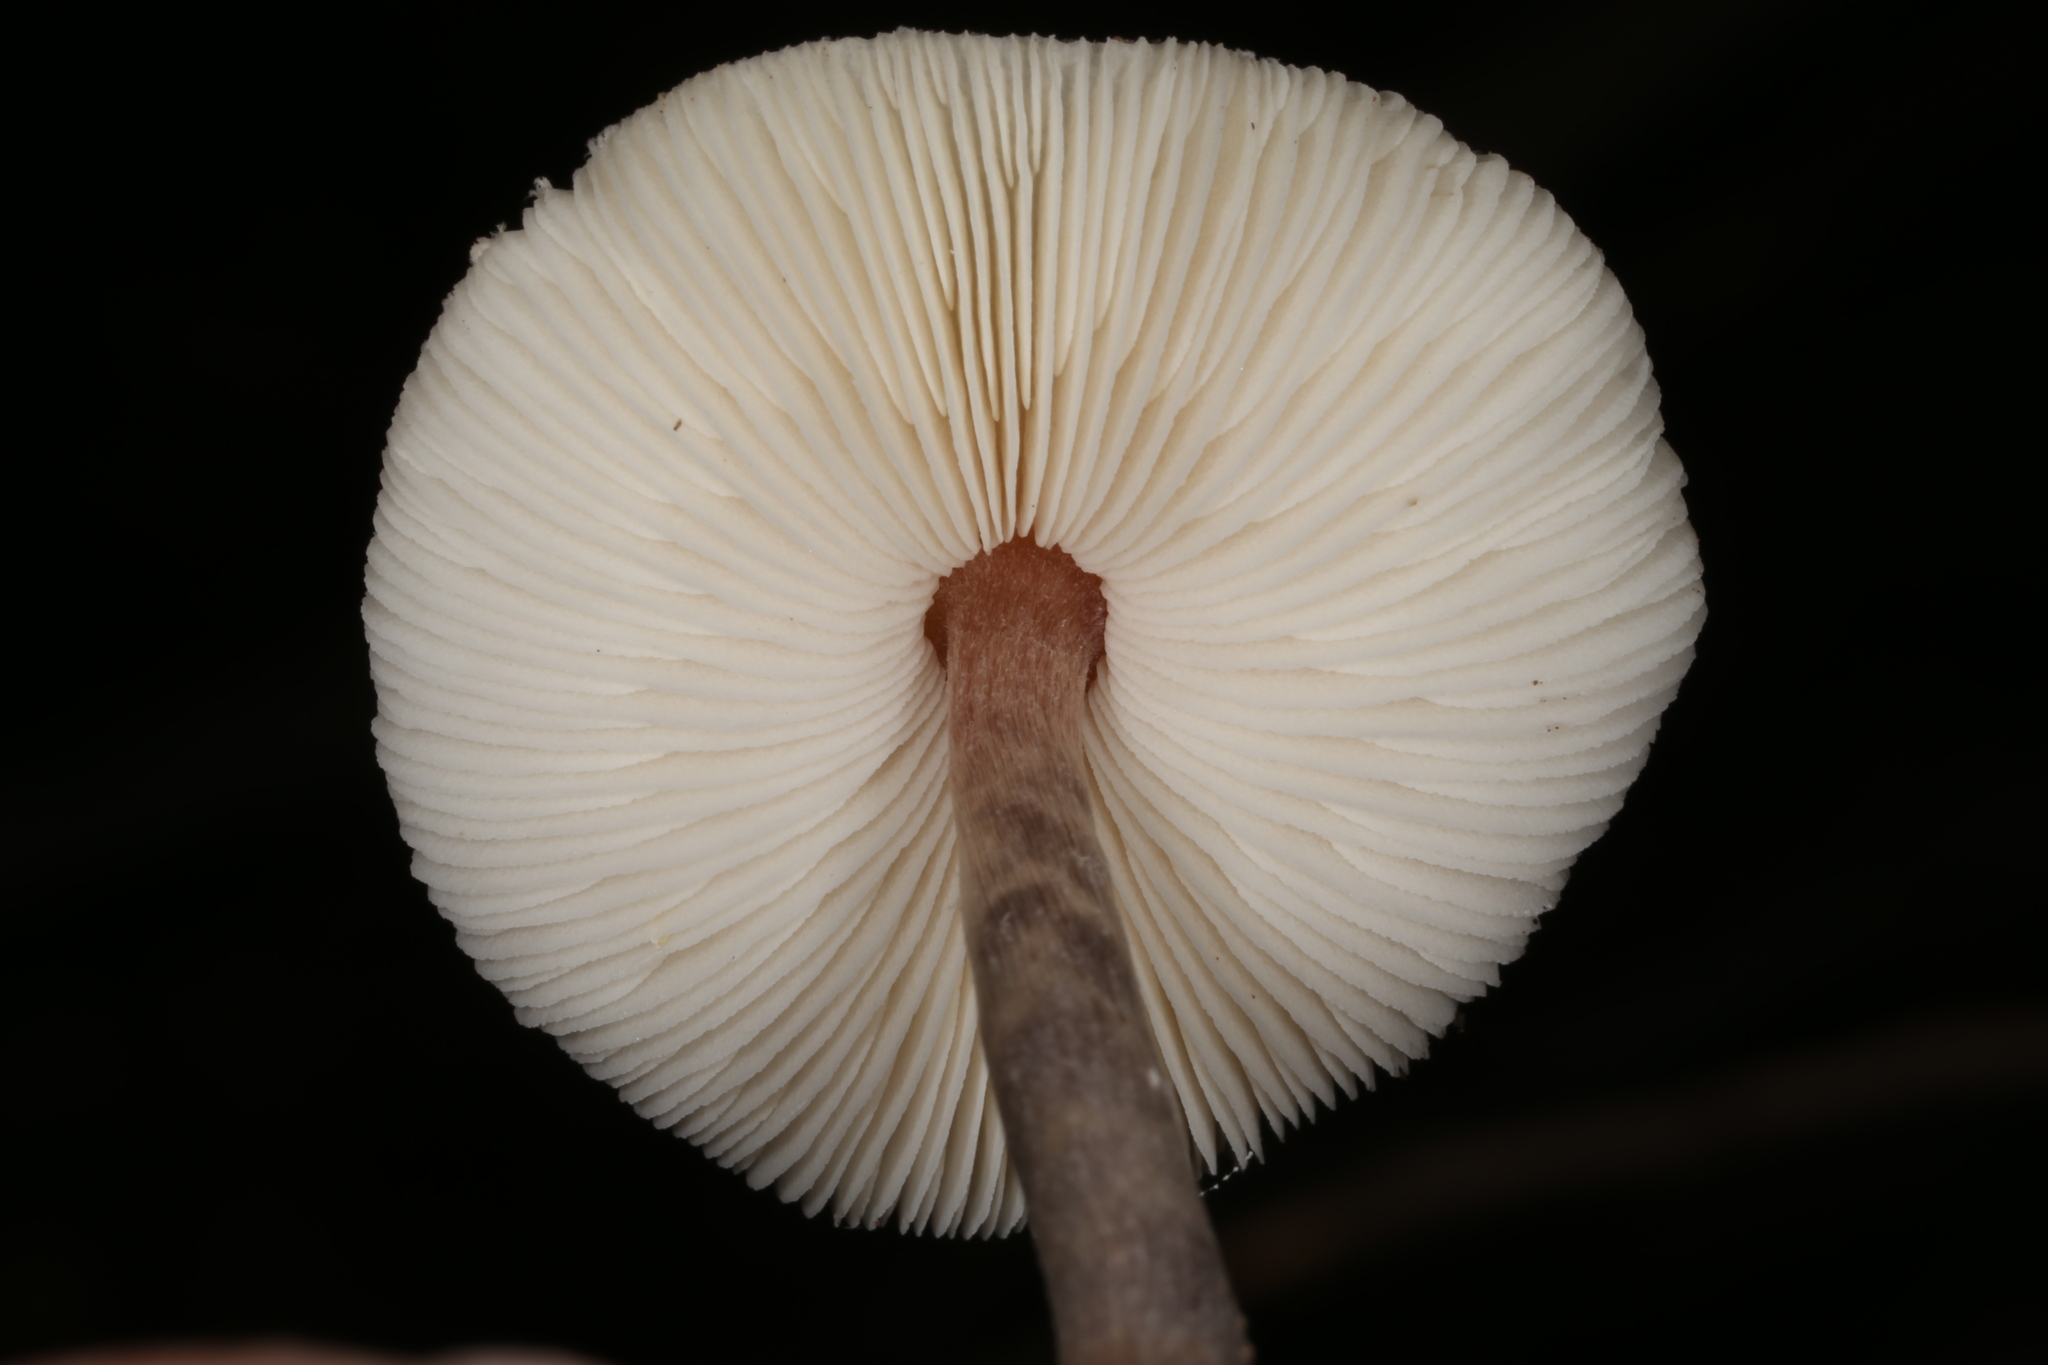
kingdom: Fungi
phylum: Basidiomycota
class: Agaricomycetes
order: Agaricales
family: Agaricaceae
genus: Lepiota
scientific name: Lepiota cristata
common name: Stinking dapperling
